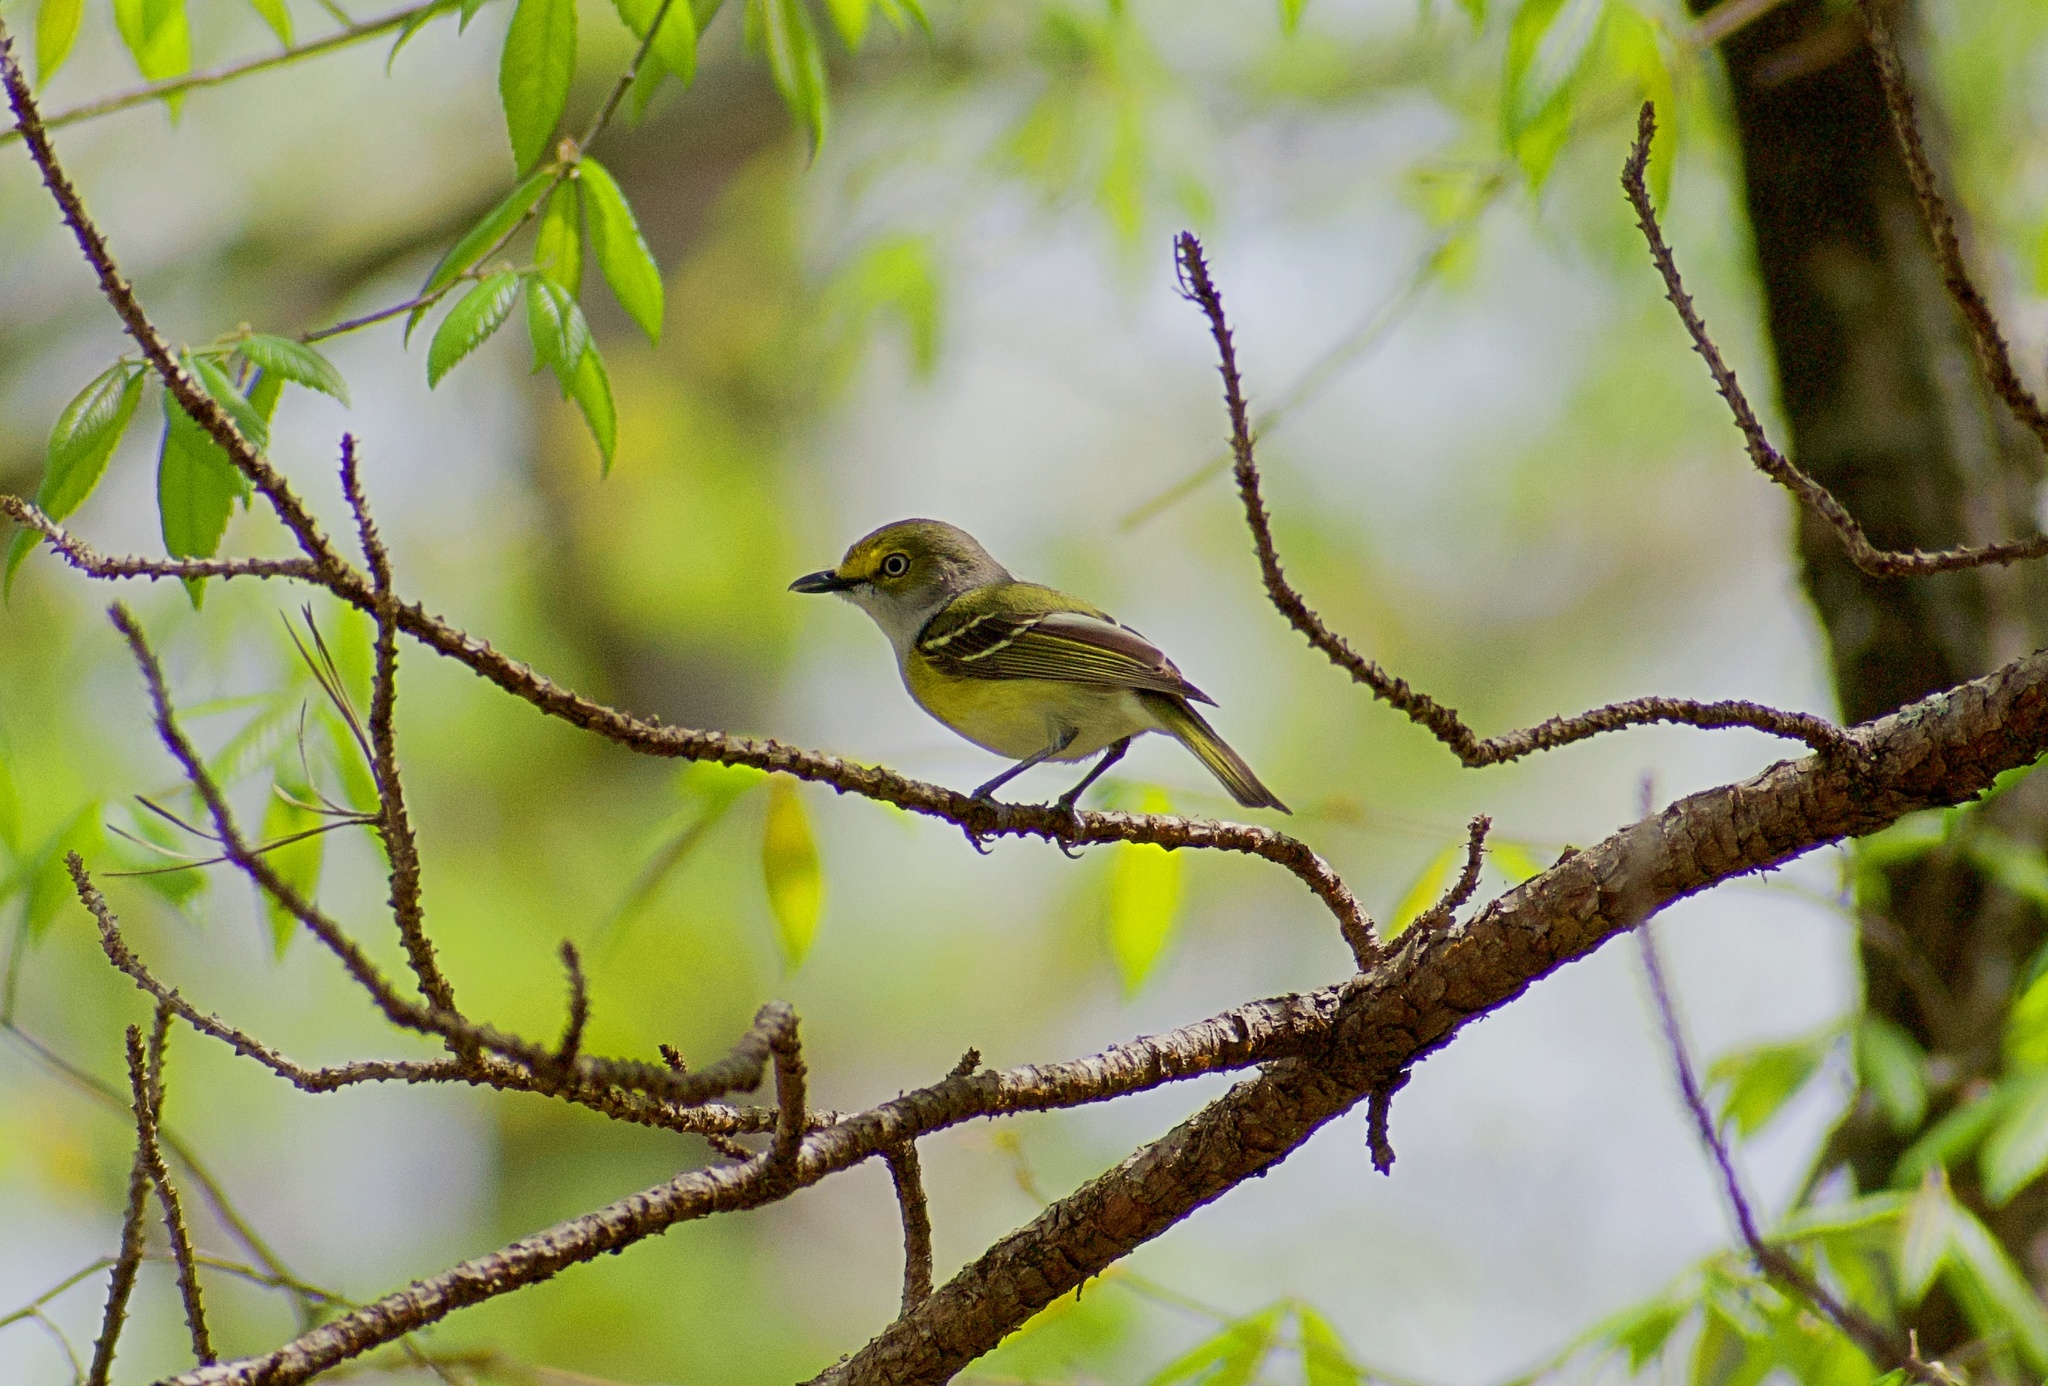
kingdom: Animalia
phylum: Chordata
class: Aves
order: Passeriformes
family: Vireonidae
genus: Vireo
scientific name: Vireo griseus
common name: White-eyed vireo
